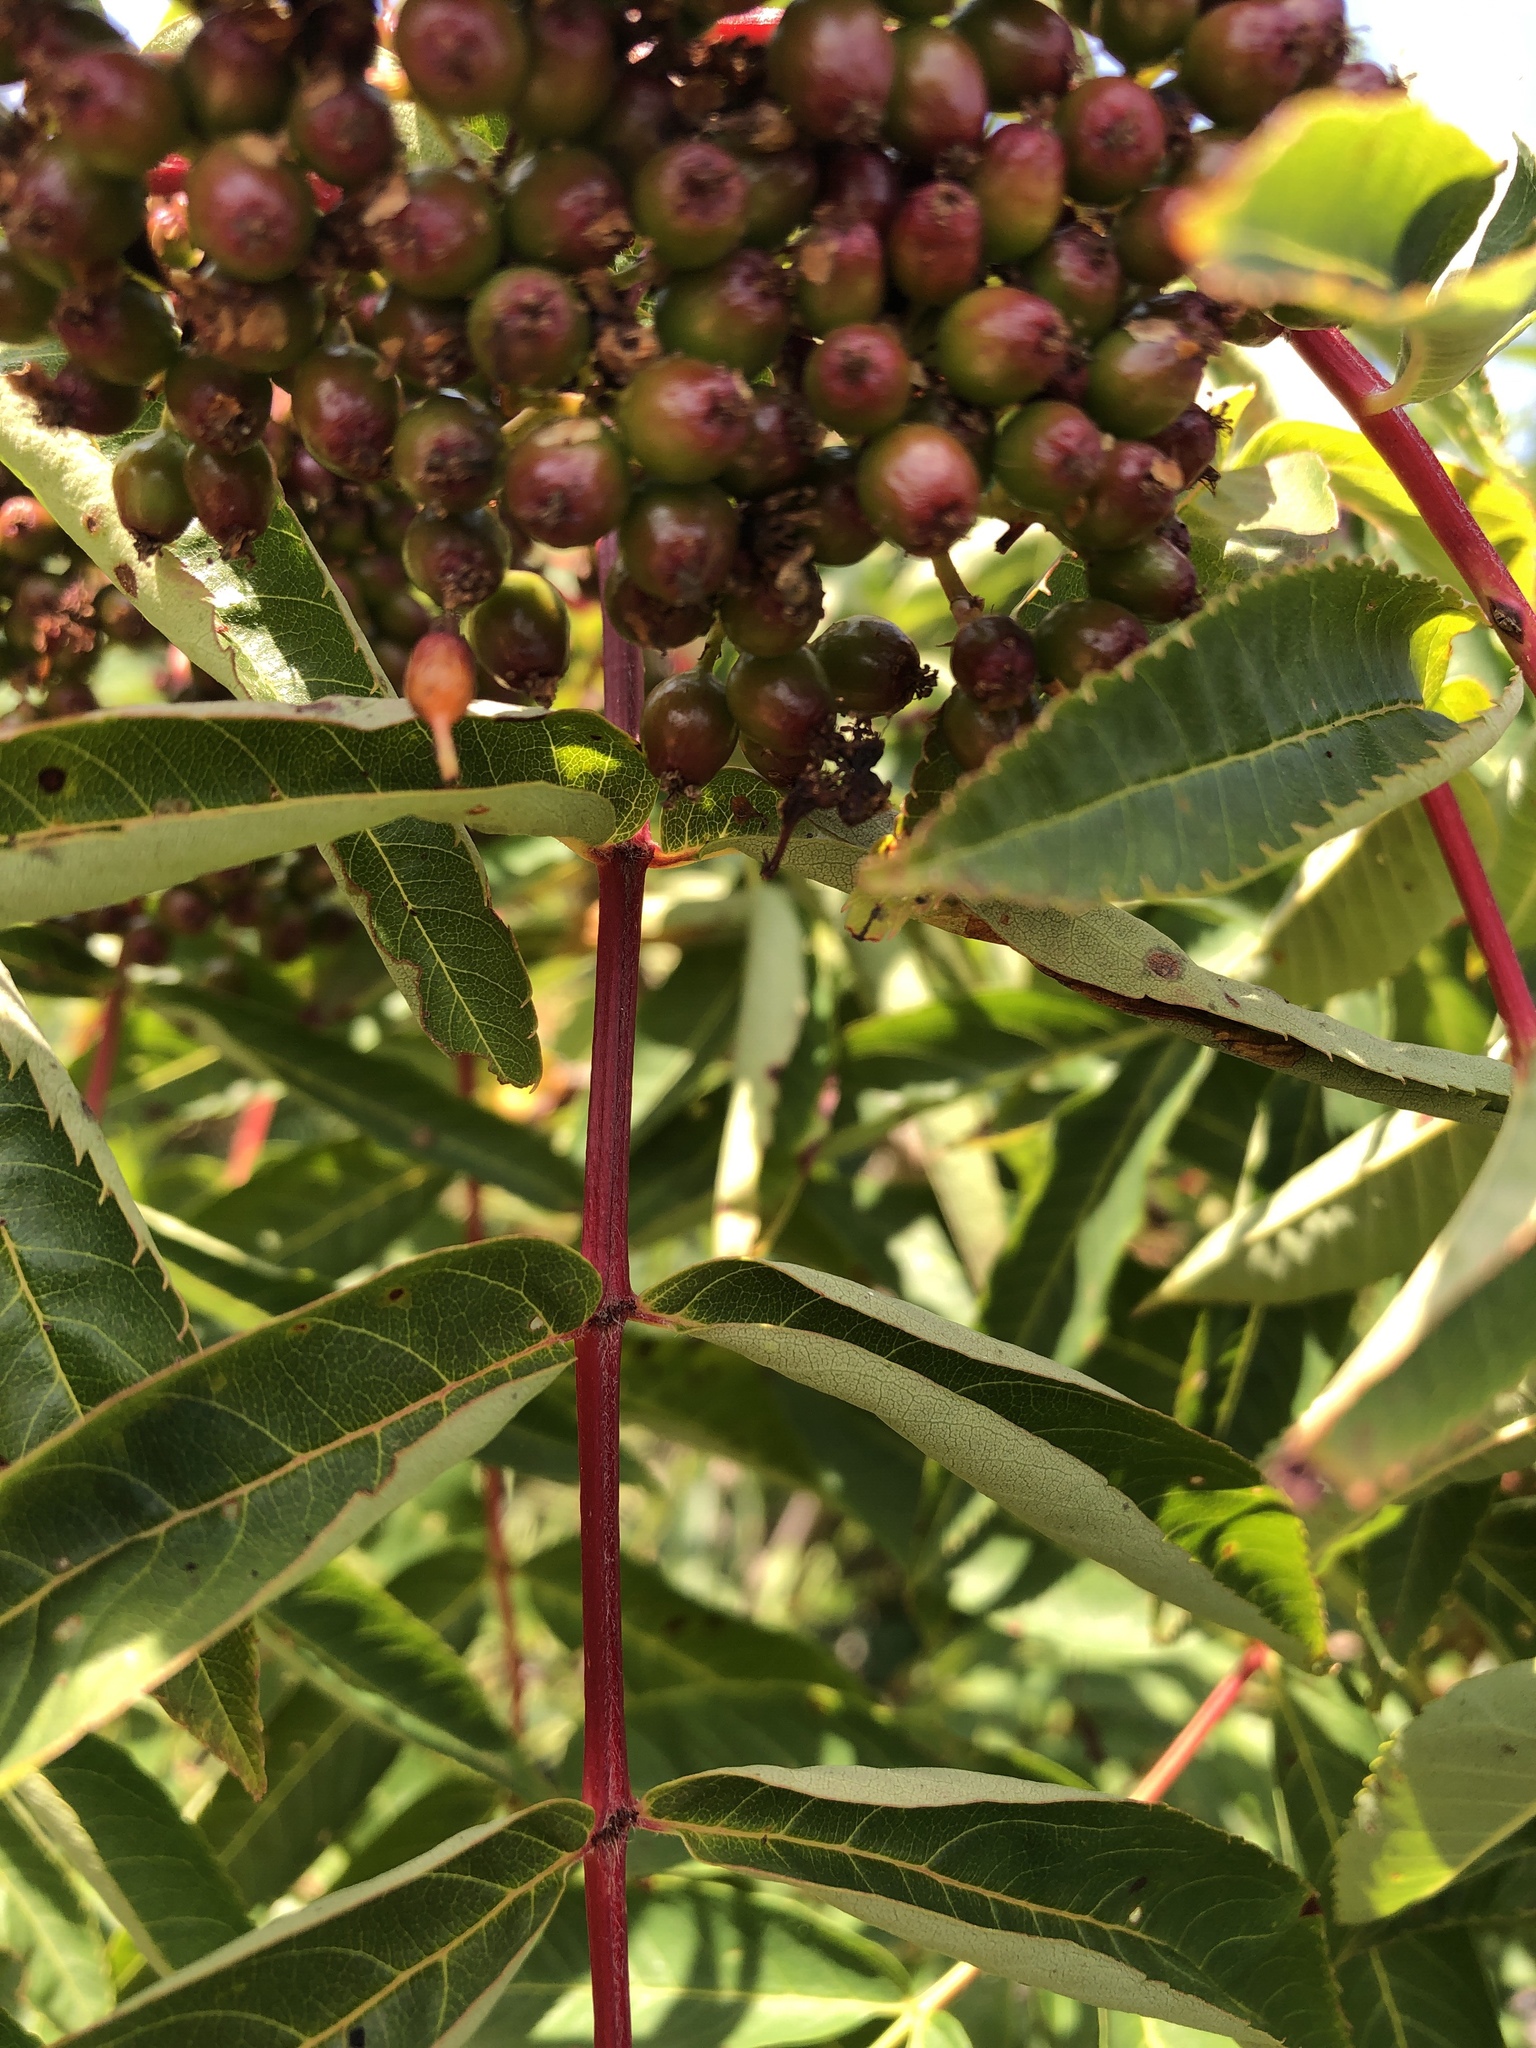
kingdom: Plantae
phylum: Tracheophyta
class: Magnoliopsida
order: Rosales
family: Rosaceae
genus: Sorbus
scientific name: Sorbus americana
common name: American mountain-ash
